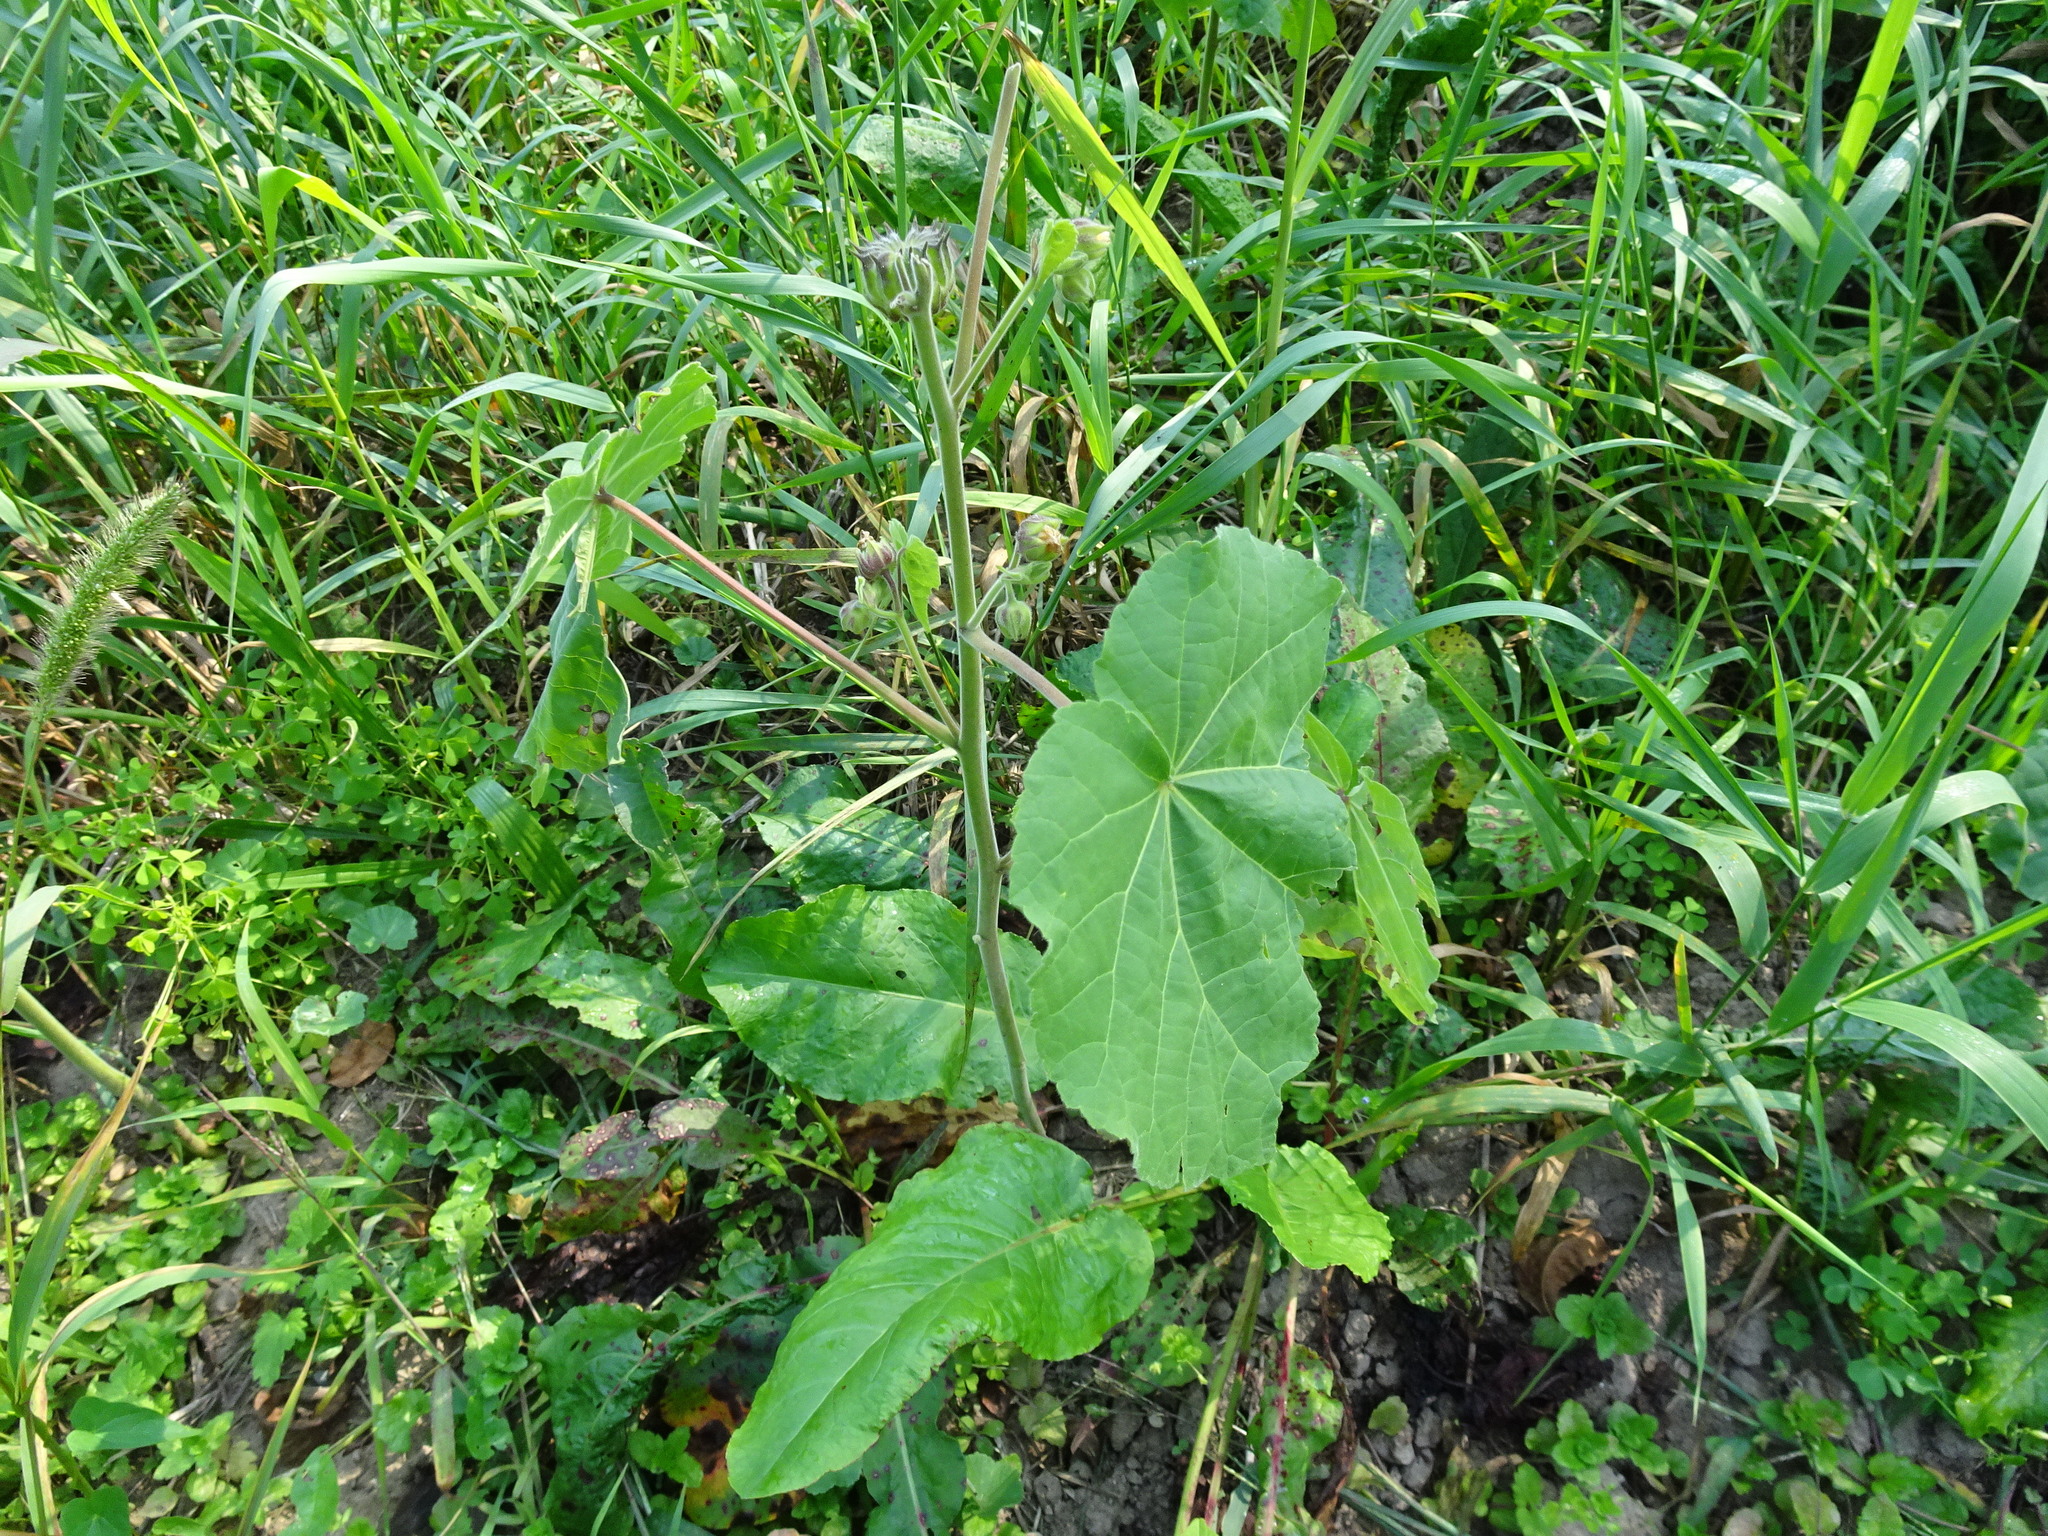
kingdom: Plantae
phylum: Tracheophyta
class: Magnoliopsida
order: Malvales
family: Malvaceae
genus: Abutilon
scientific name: Abutilon theophrasti
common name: Velvetleaf
